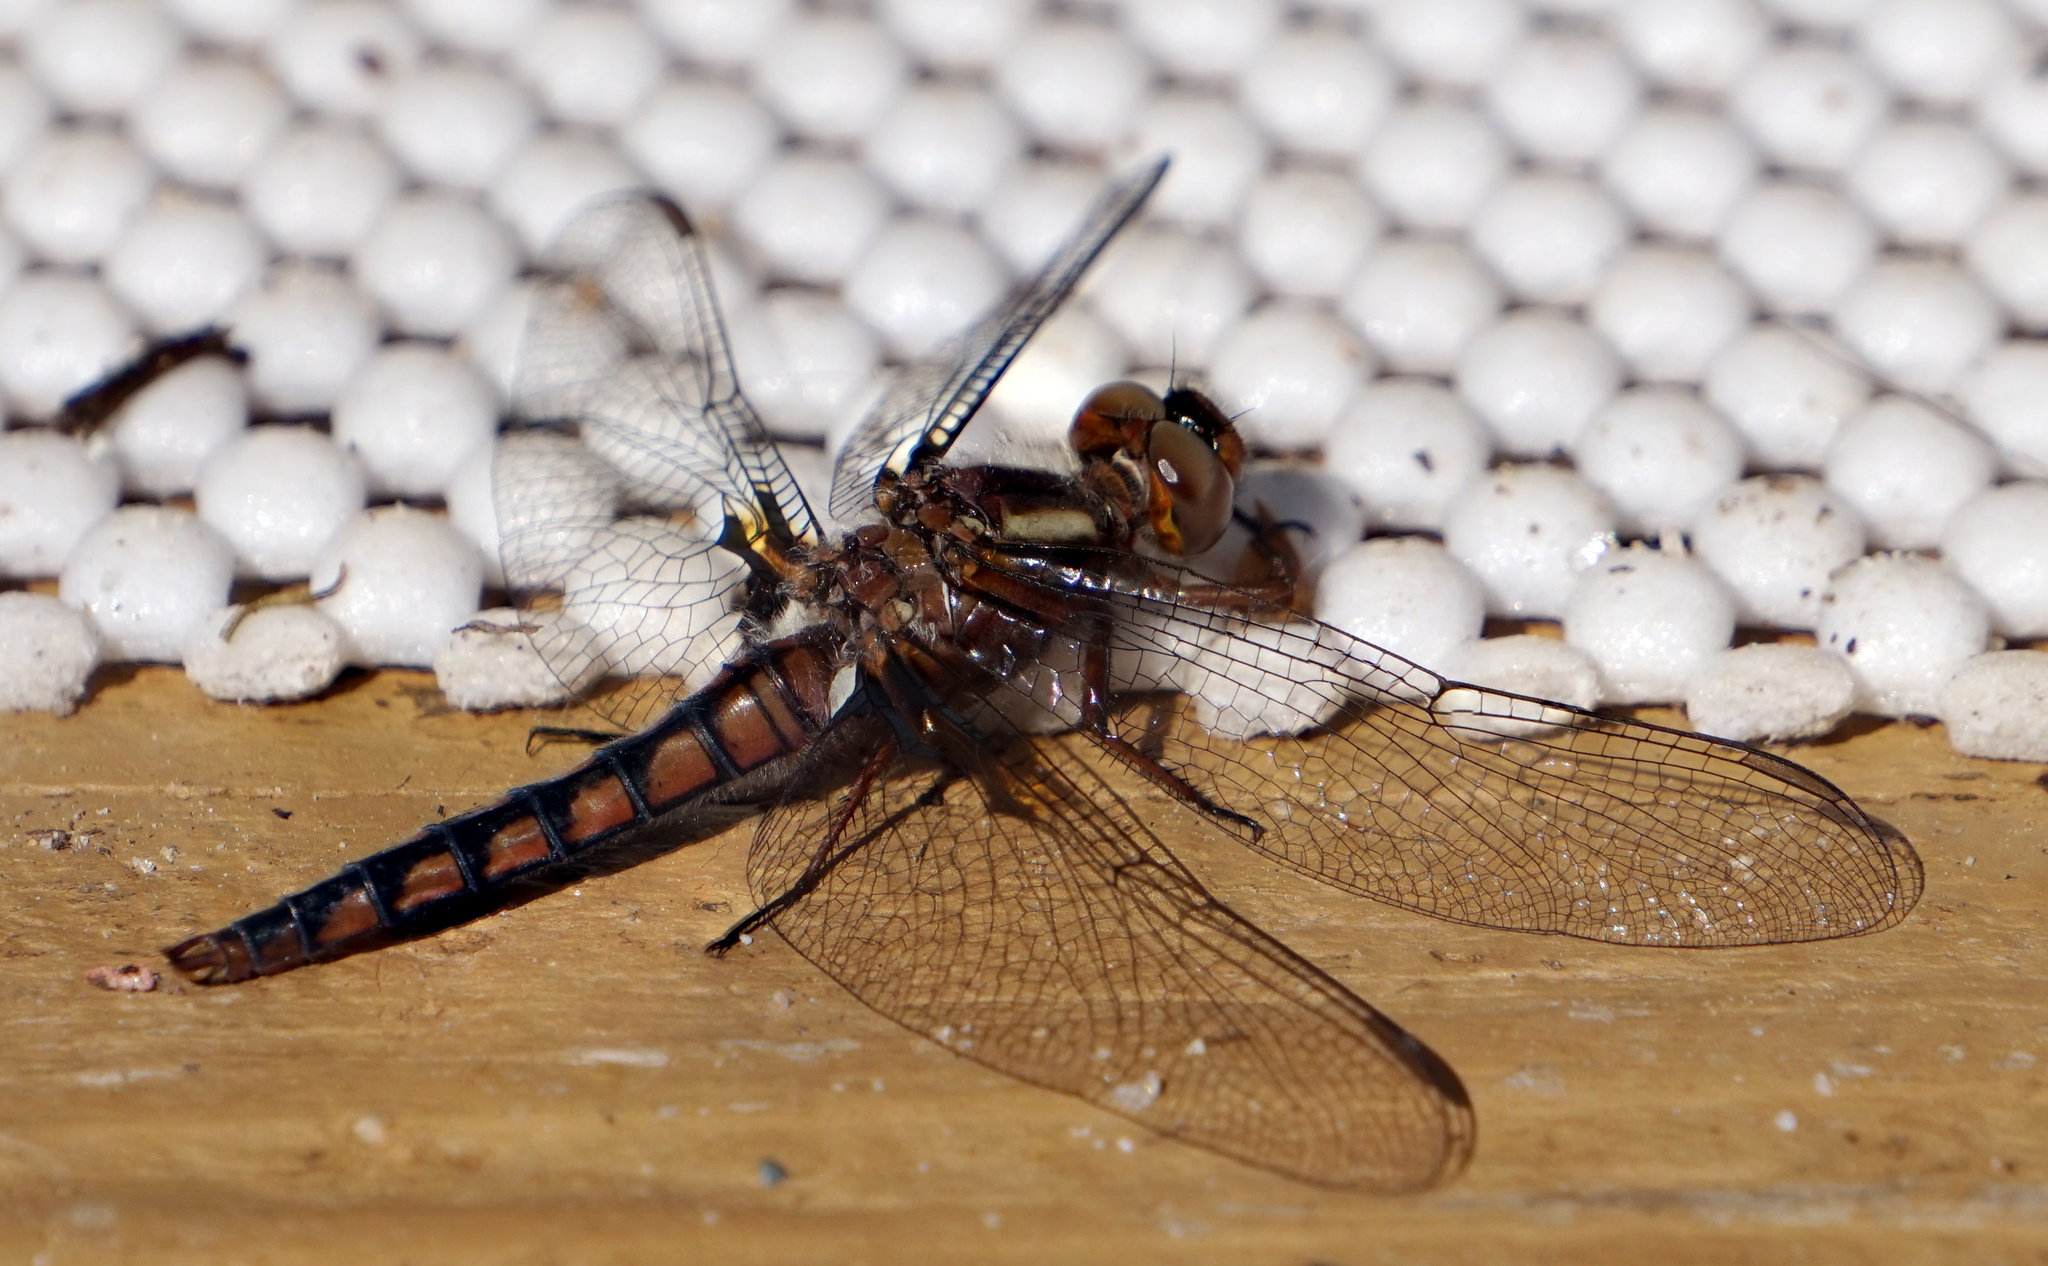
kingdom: Animalia
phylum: Arthropoda
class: Insecta
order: Odonata
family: Libellulidae
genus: Ladona
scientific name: Ladona deplanata
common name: Blue corporal
